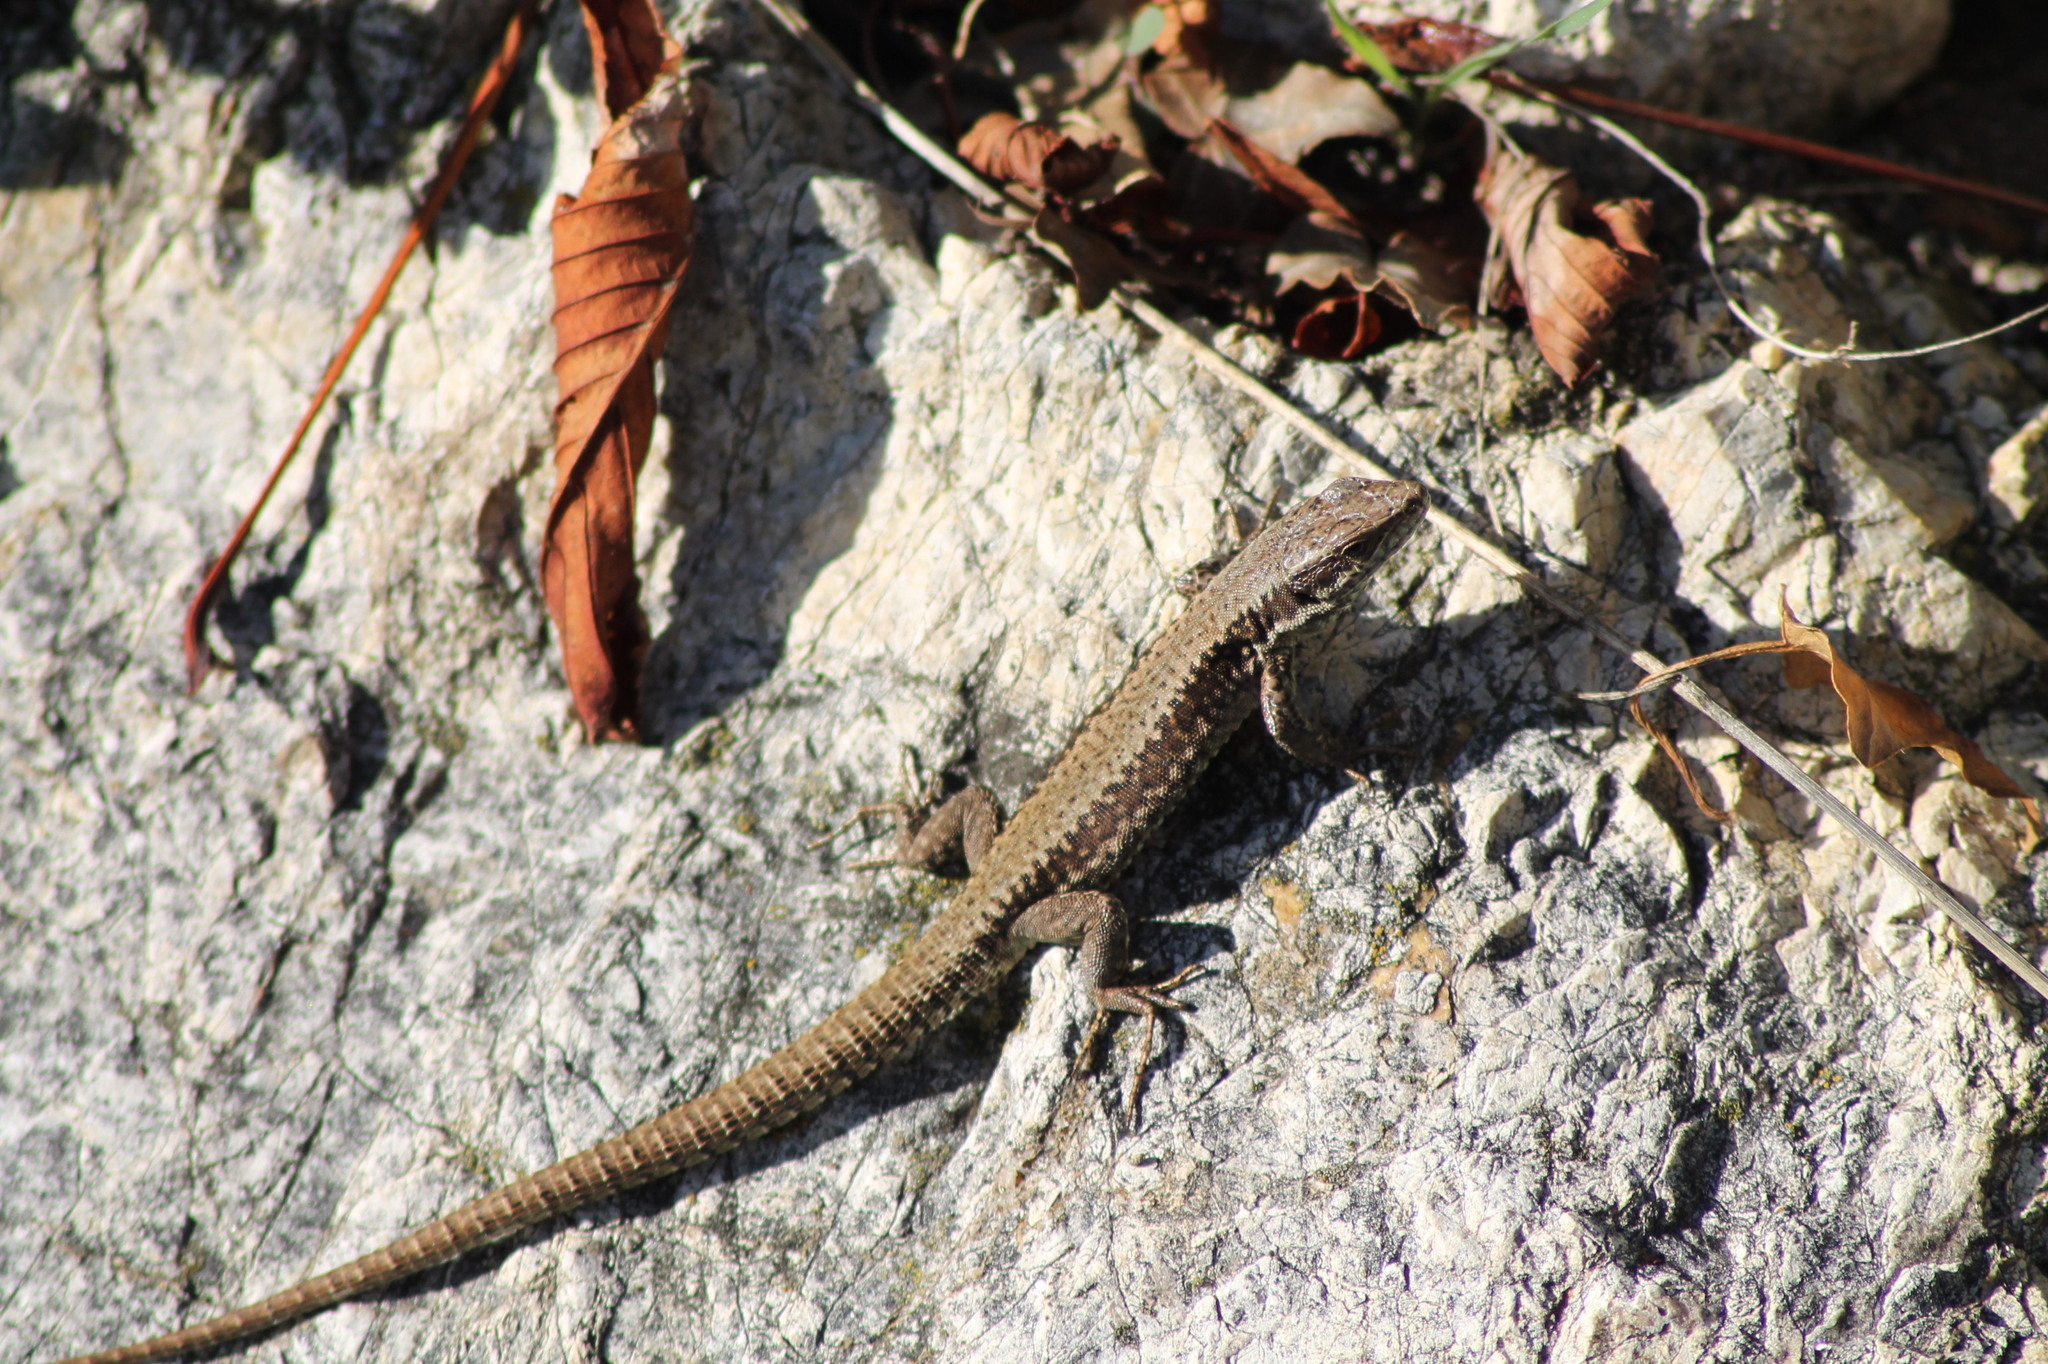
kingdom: Animalia
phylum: Chordata
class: Squamata
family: Lacertidae
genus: Podarcis
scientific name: Podarcis muralis
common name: Common wall lizard
